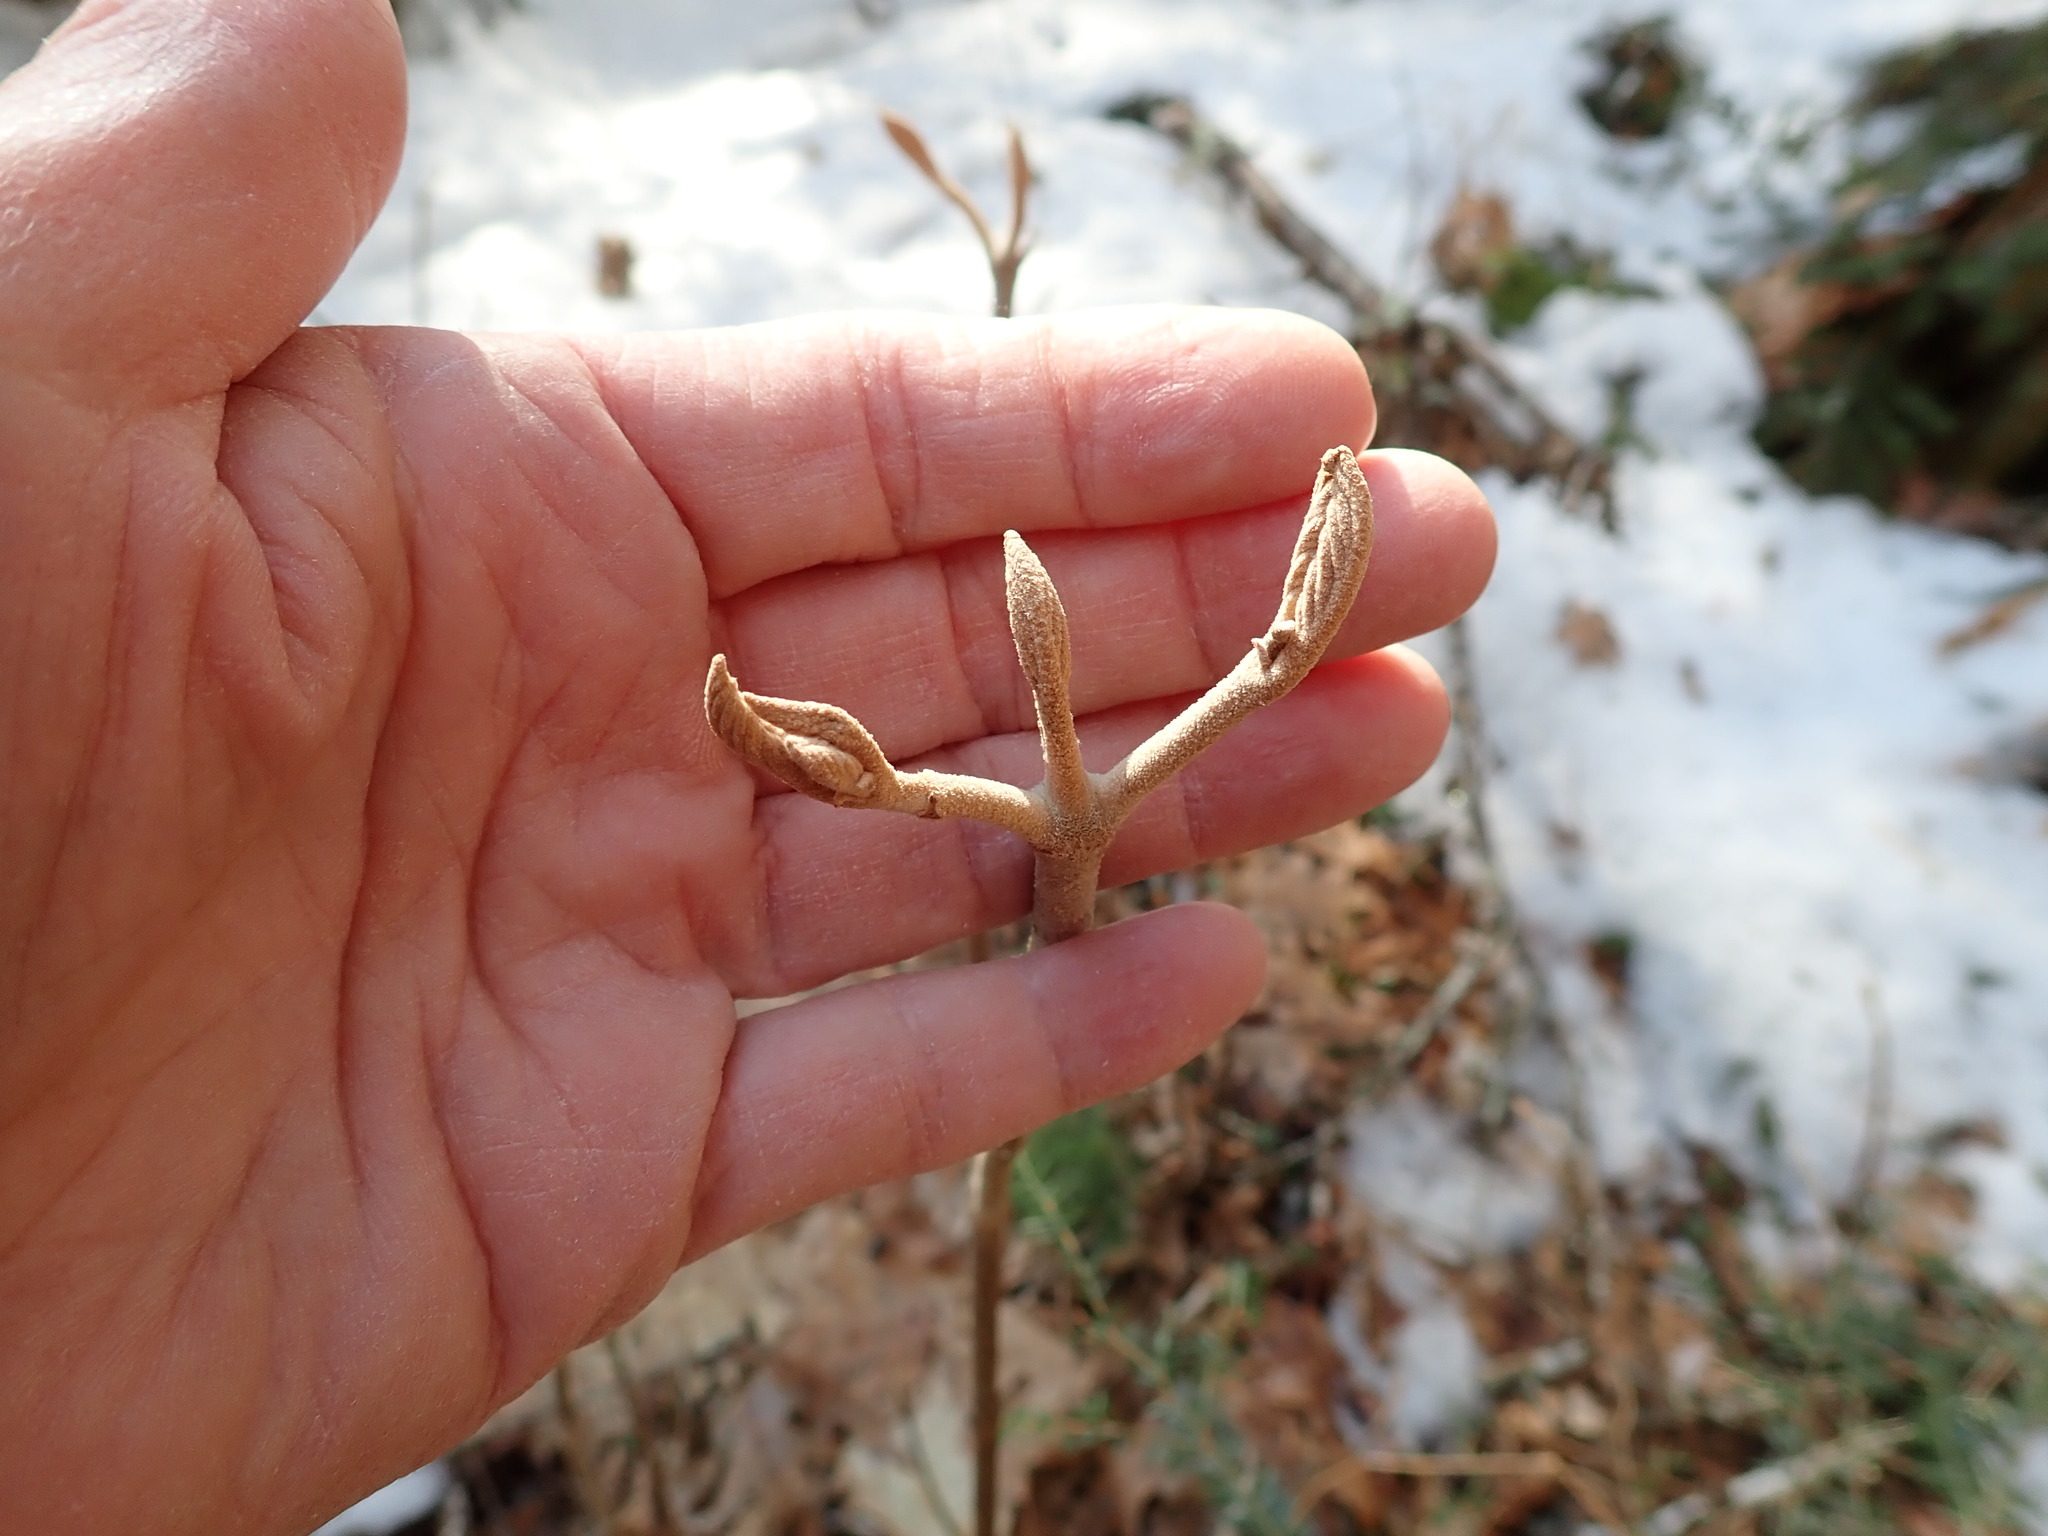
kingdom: Plantae
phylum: Tracheophyta
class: Magnoliopsida
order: Dipsacales
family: Viburnaceae
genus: Viburnum
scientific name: Viburnum lantanoides
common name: Hobblebush
